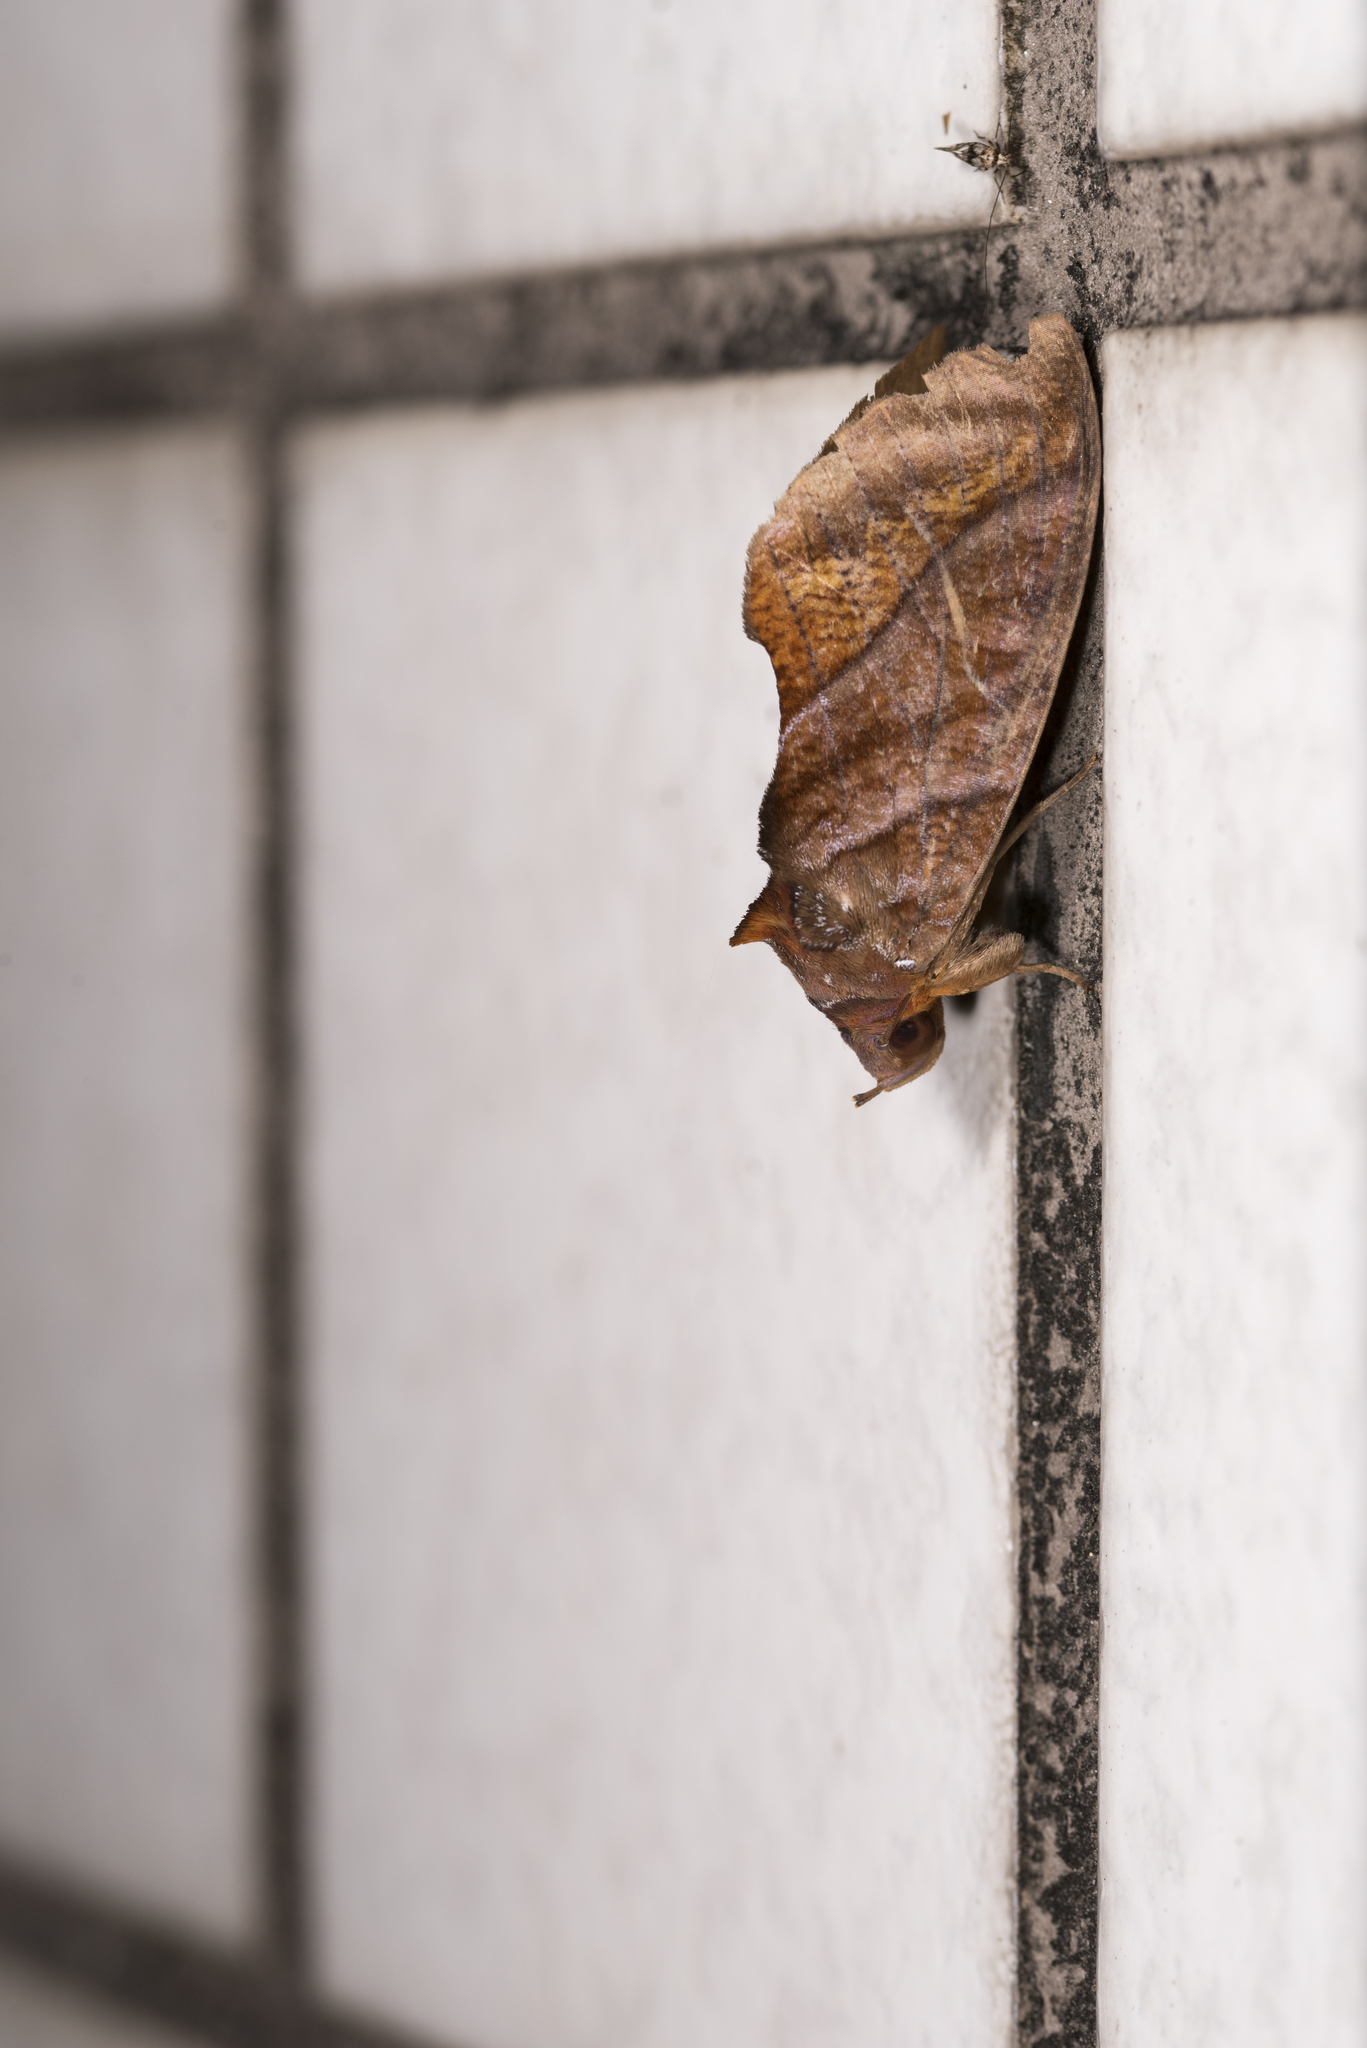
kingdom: Animalia
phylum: Arthropoda
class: Insecta
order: Lepidoptera
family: Erebidae
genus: Eudocima
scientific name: Eudocima homaena
